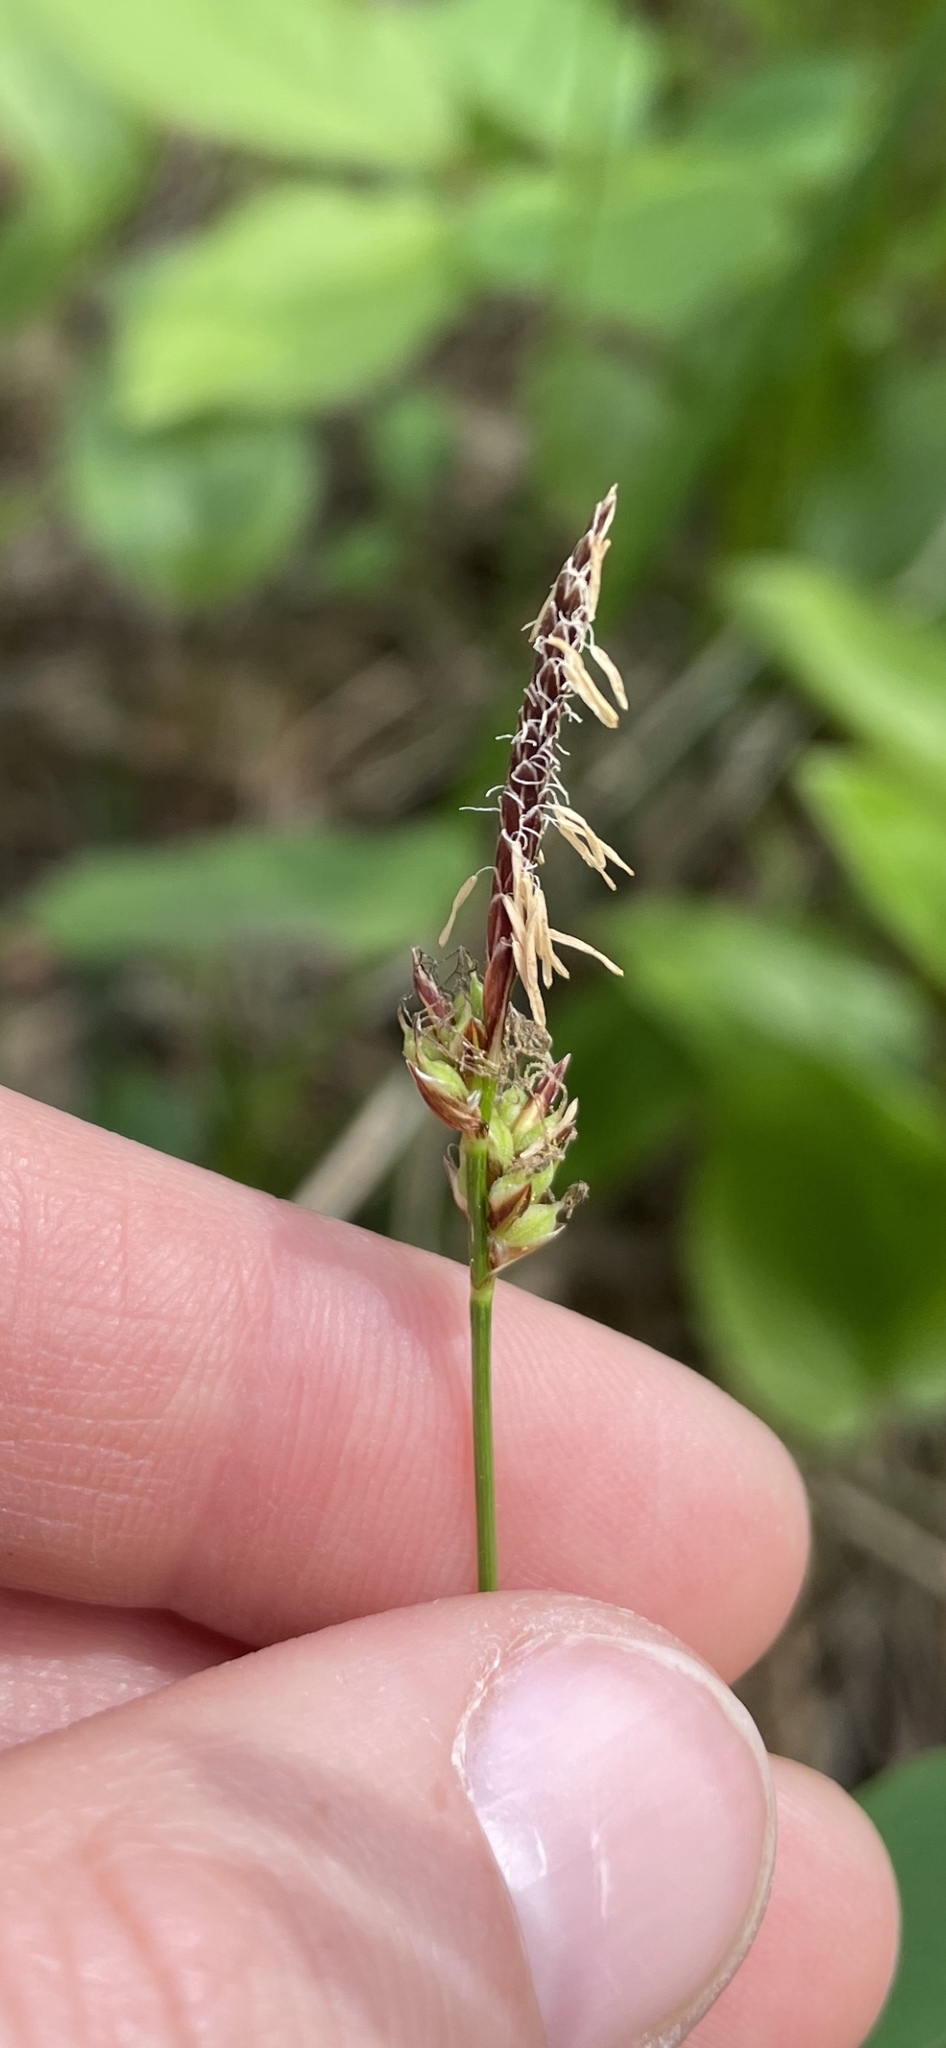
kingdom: Plantae
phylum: Tracheophyta
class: Liliopsida
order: Poales
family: Cyperaceae
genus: Carex
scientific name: Carex pensylvanica
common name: Common oak sedge
